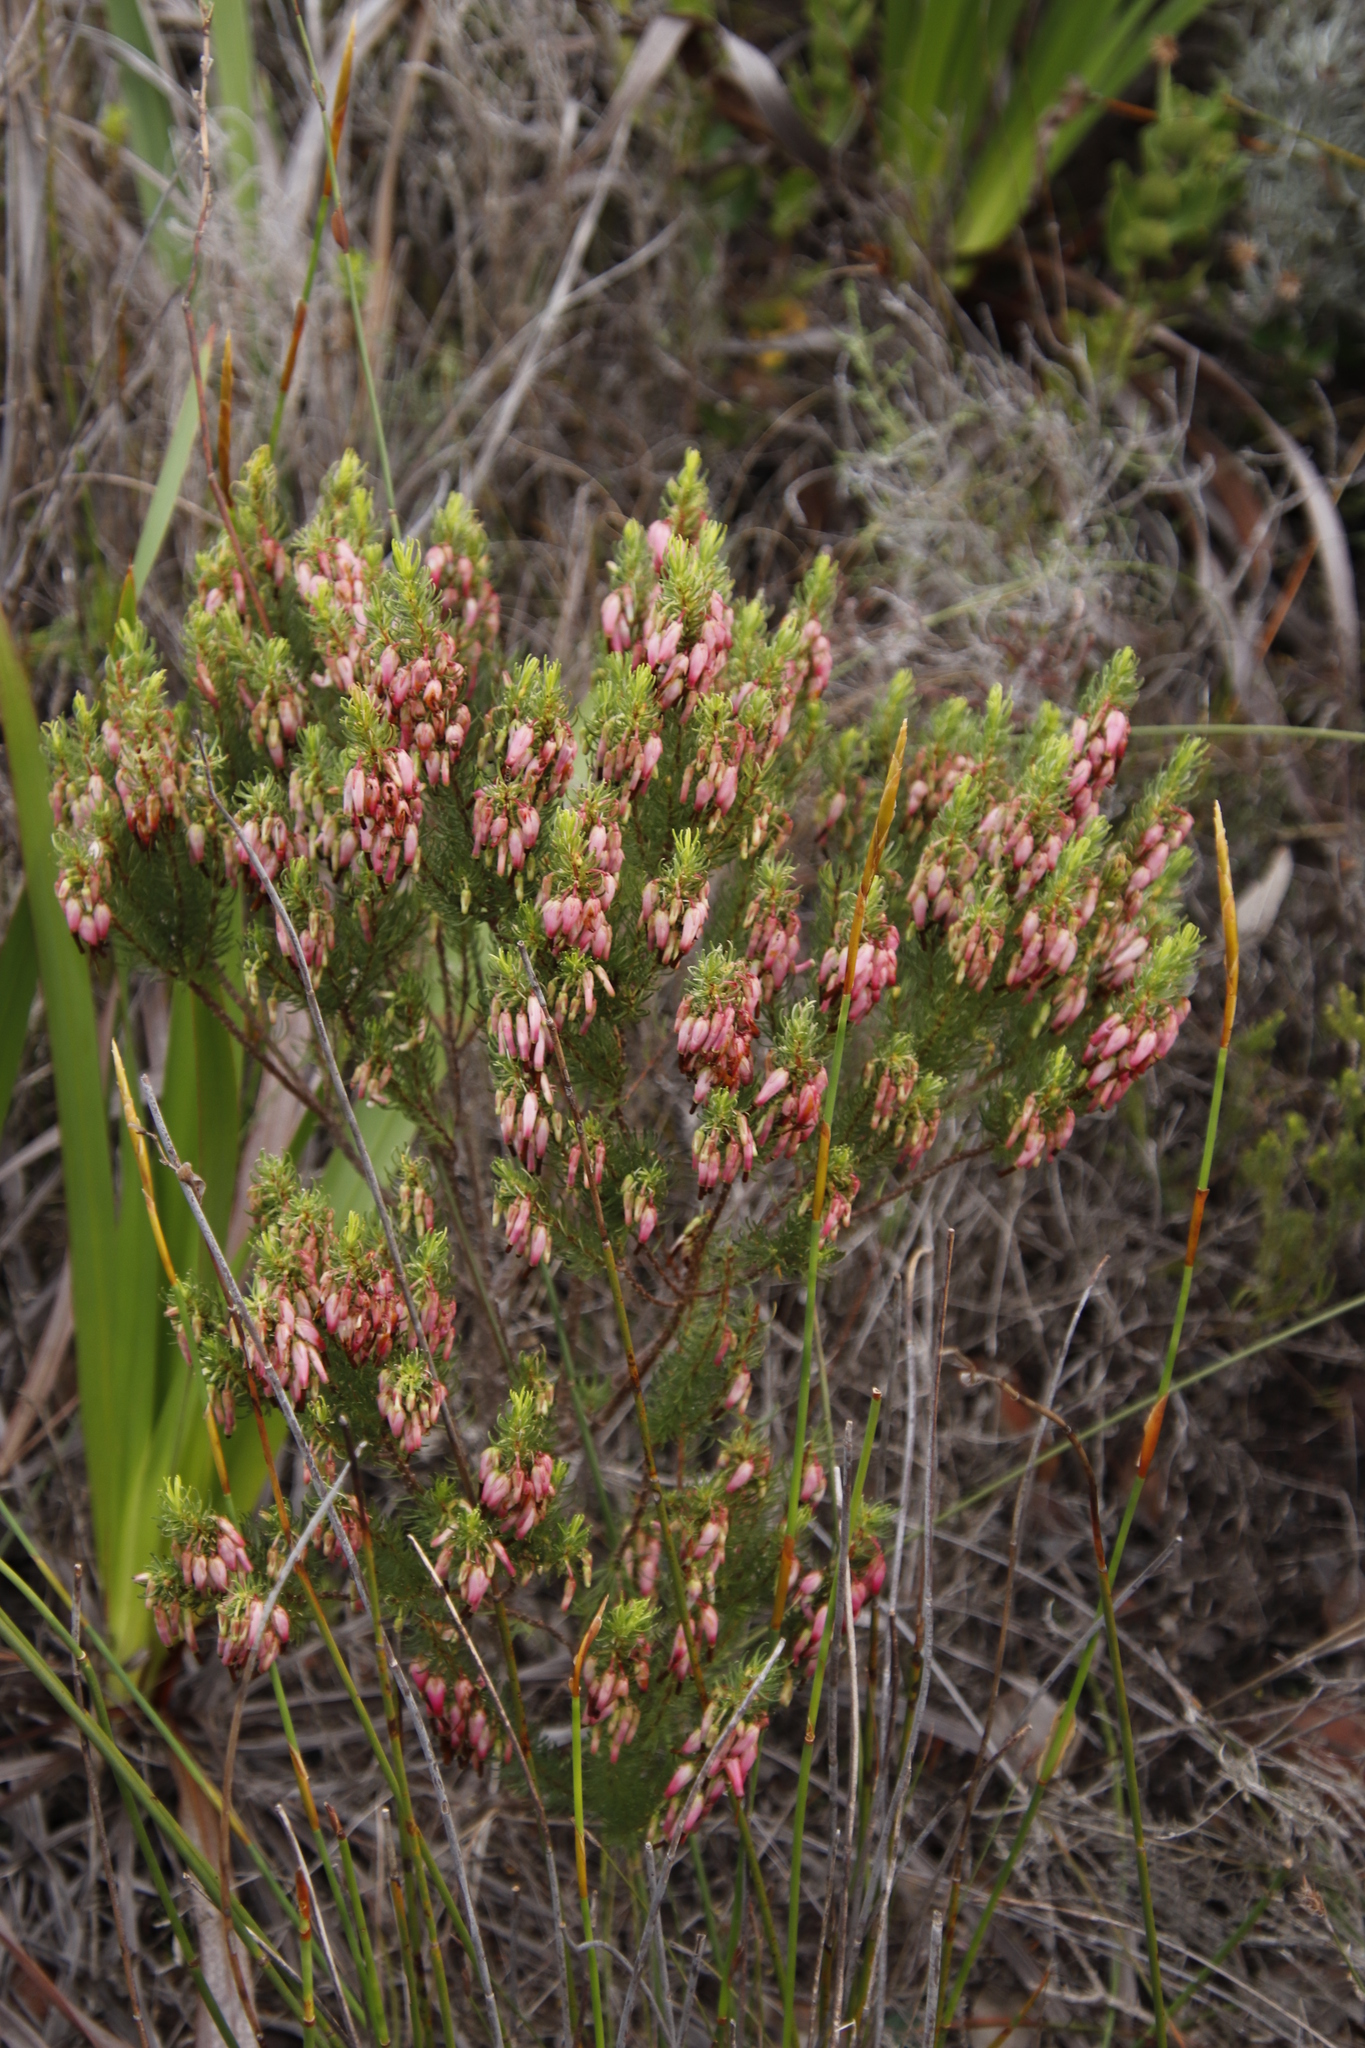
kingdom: Plantae
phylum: Tracheophyta
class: Magnoliopsida
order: Ericales
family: Ericaceae
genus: Erica
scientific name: Erica plukenetii
